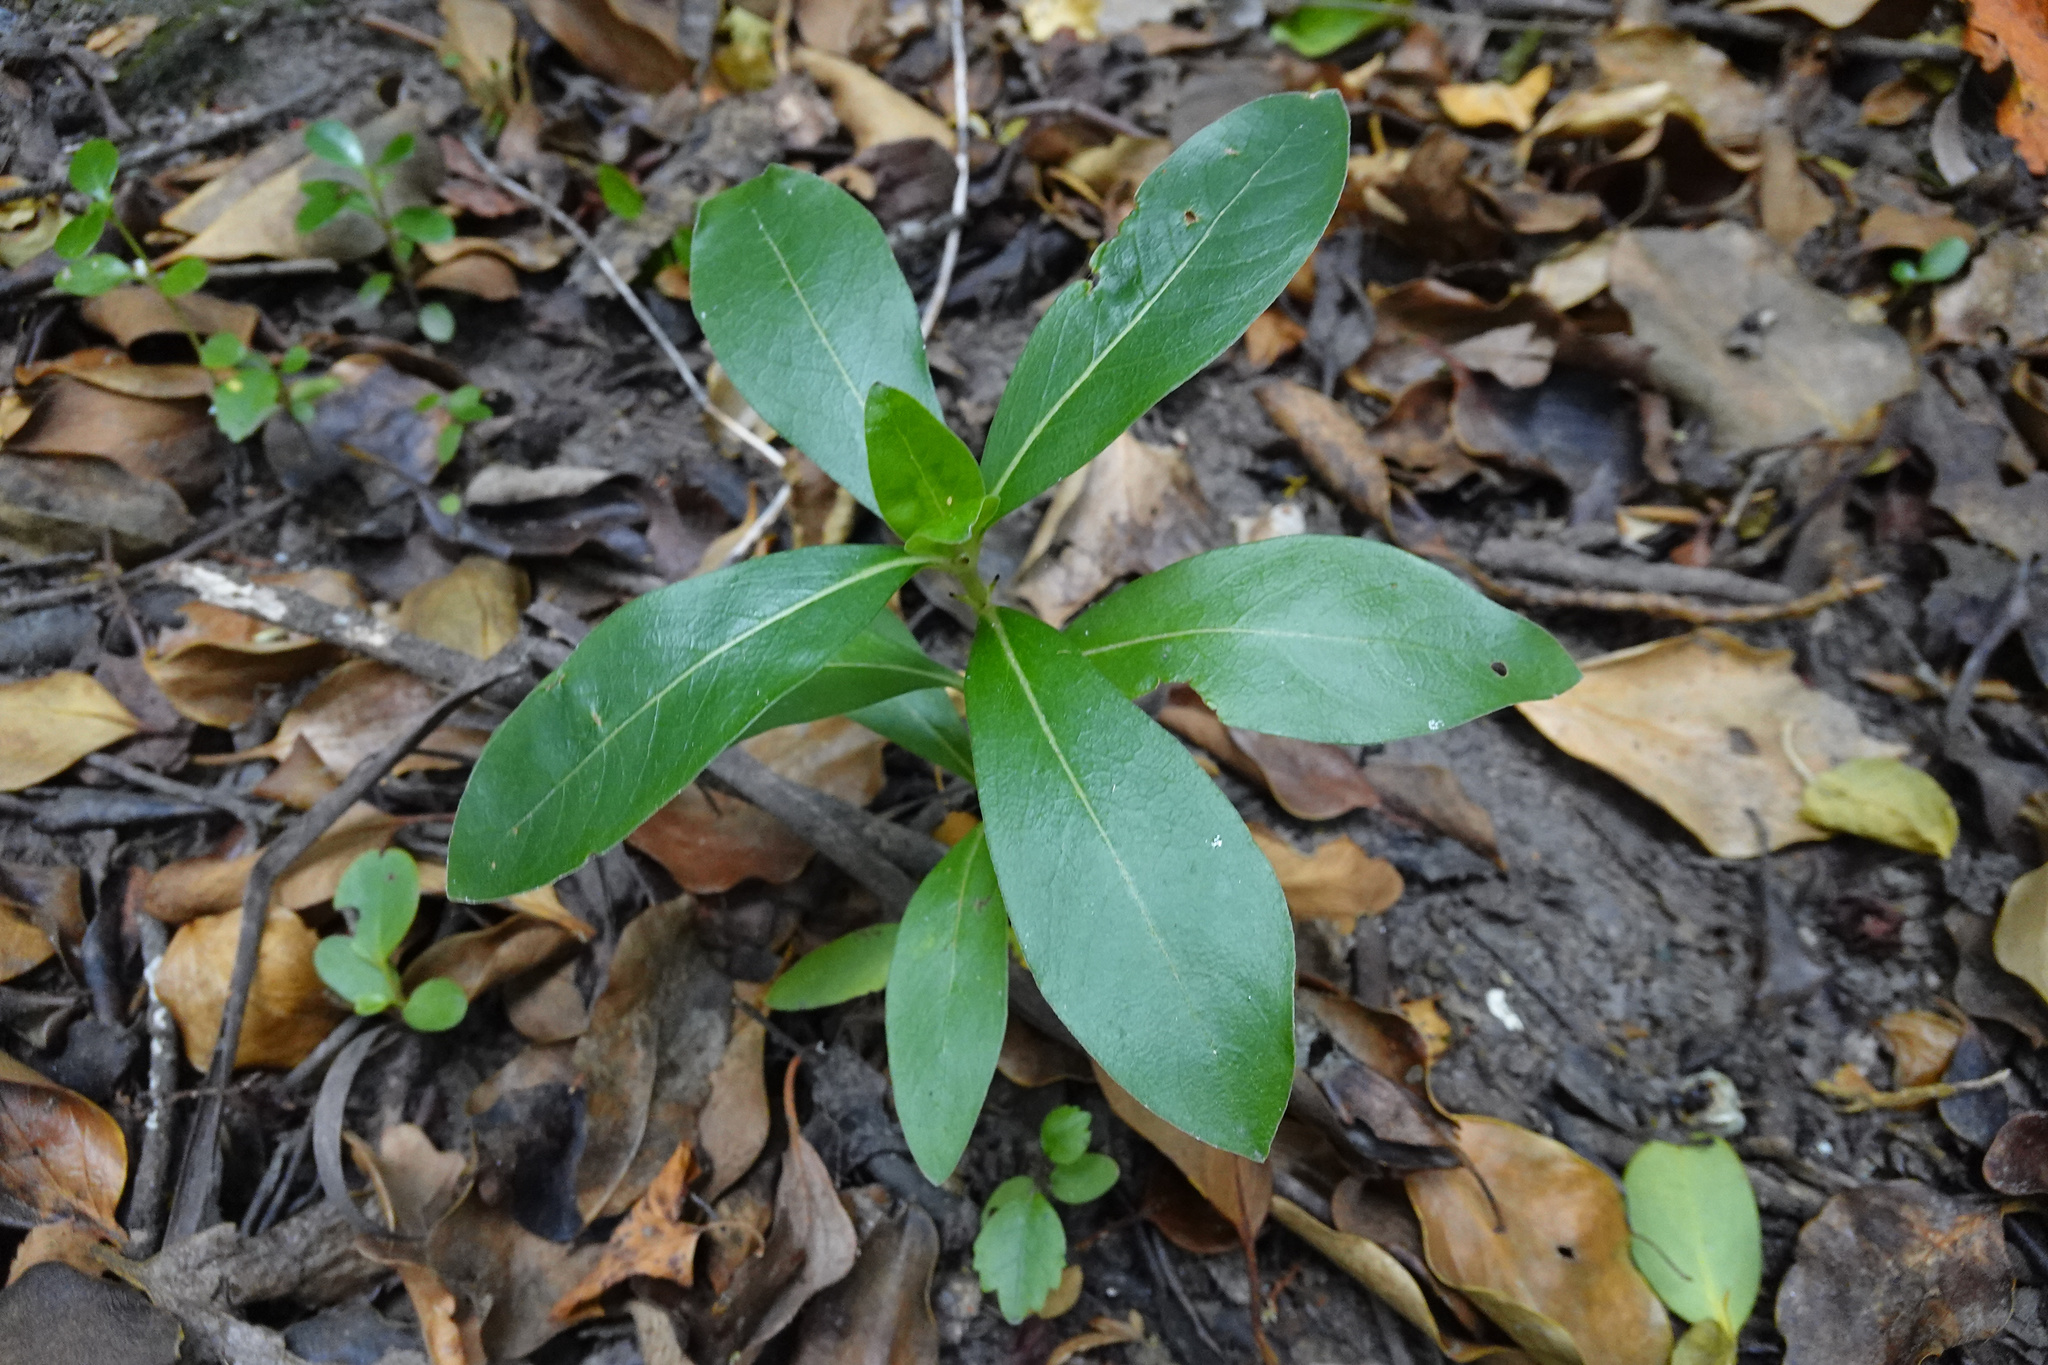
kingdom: Plantae
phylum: Tracheophyta
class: Magnoliopsida
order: Gentianales
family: Rubiaceae
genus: Coprosma
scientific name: Coprosma robusta
